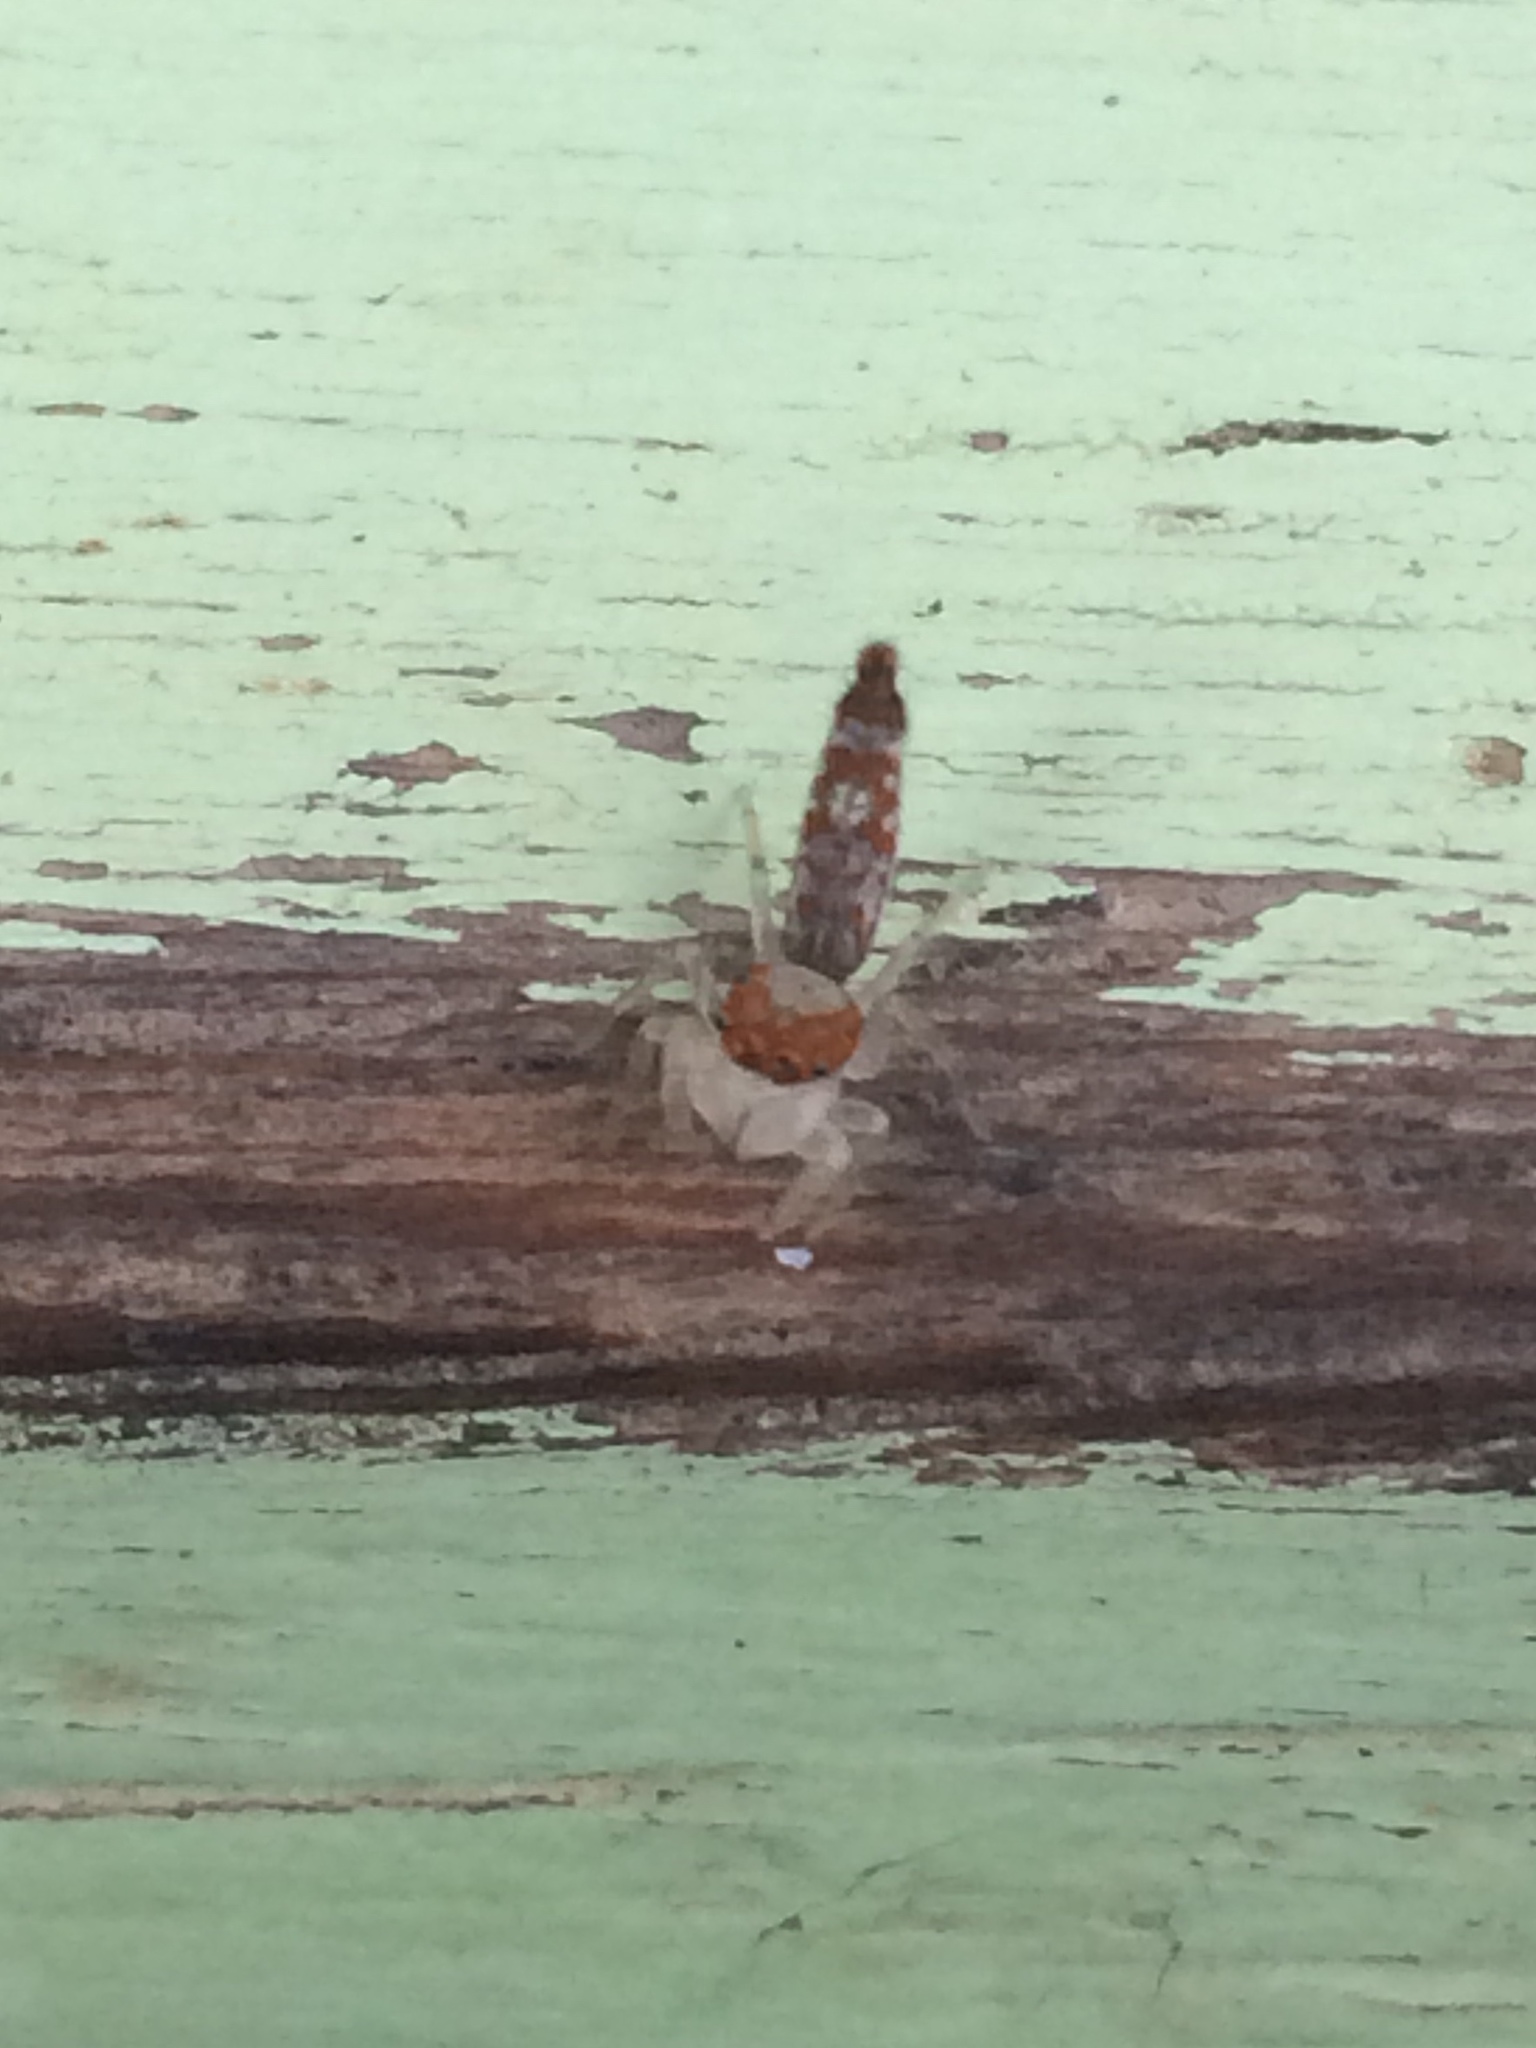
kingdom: Animalia
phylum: Arthropoda
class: Arachnida
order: Araneae
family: Salticidae
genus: Ceriomura
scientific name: Ceriomura damborskyae
